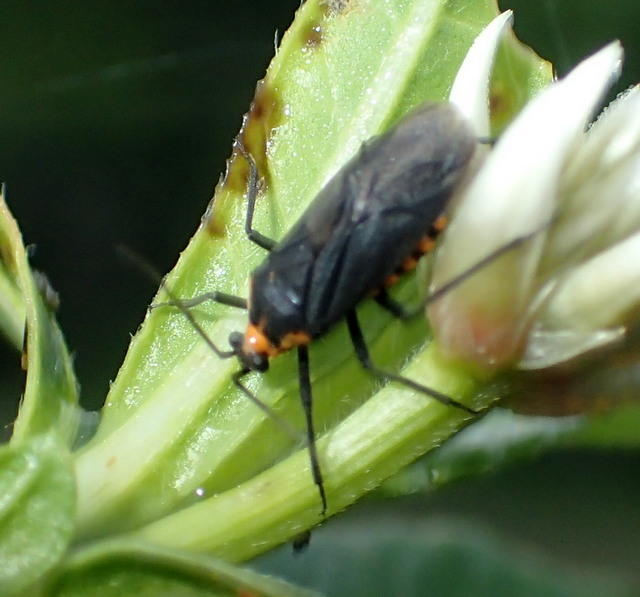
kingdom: Animalia
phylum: Arthropoda
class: Insecta
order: Hemiptera
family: Miridae
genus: Prepops
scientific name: Prepops circummaculatus
